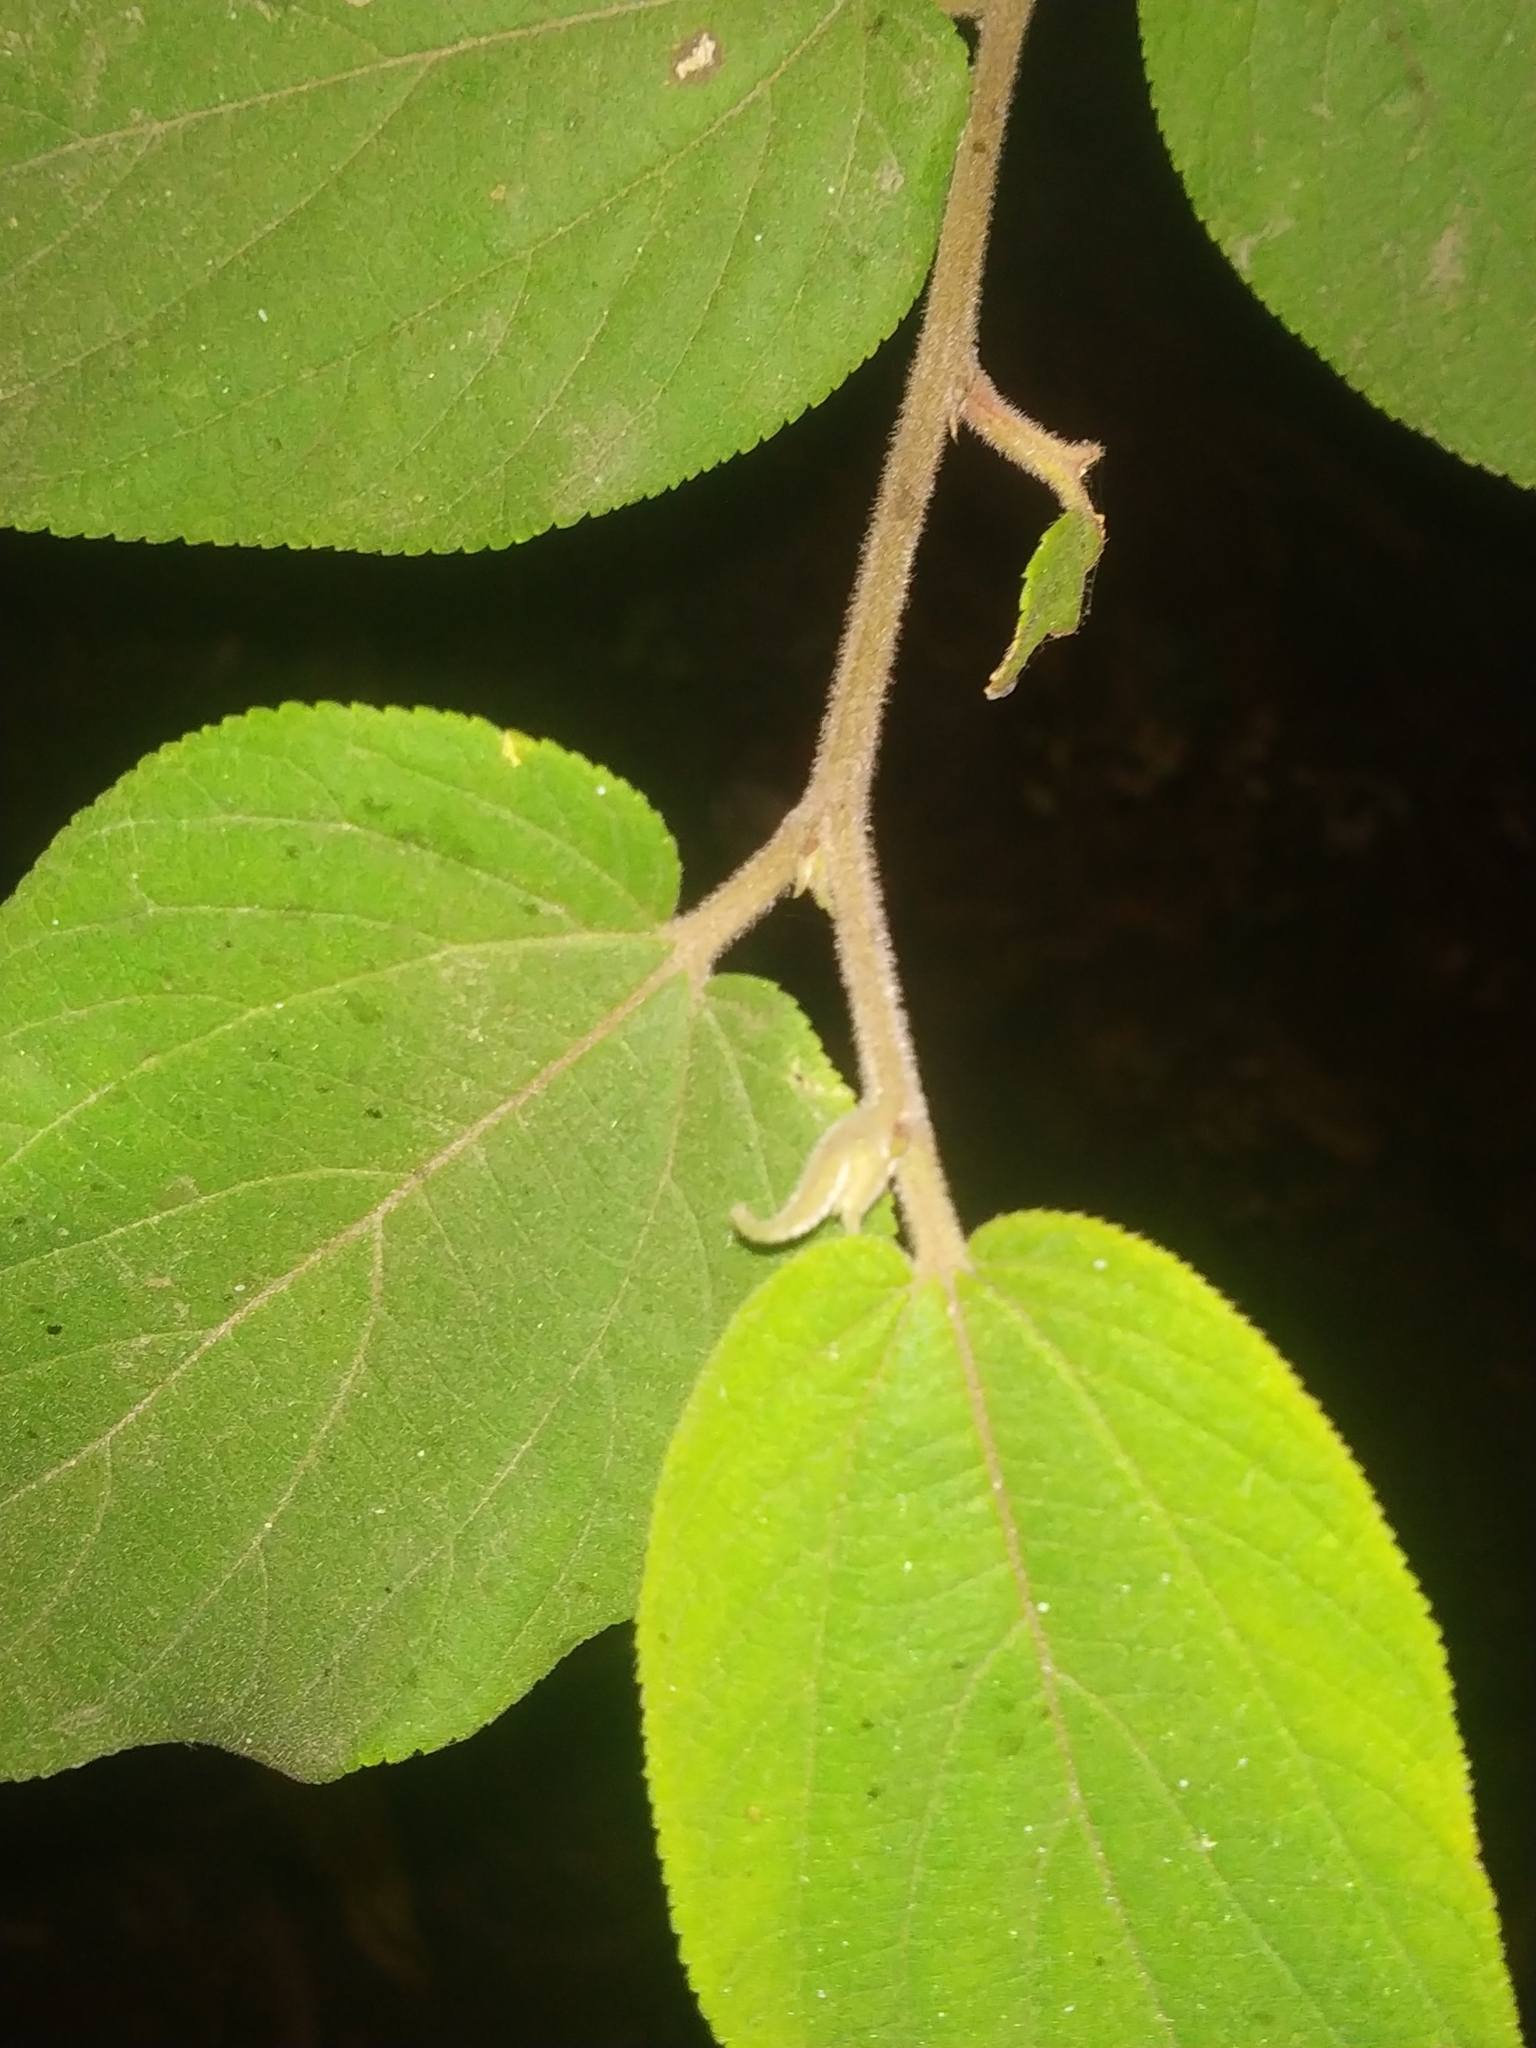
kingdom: Plantae
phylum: Tracheophyta
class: Magnoliopsida
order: Rosales
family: Cannabaceae
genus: Trema
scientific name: Trema orientale
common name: Indian charcoal tree
